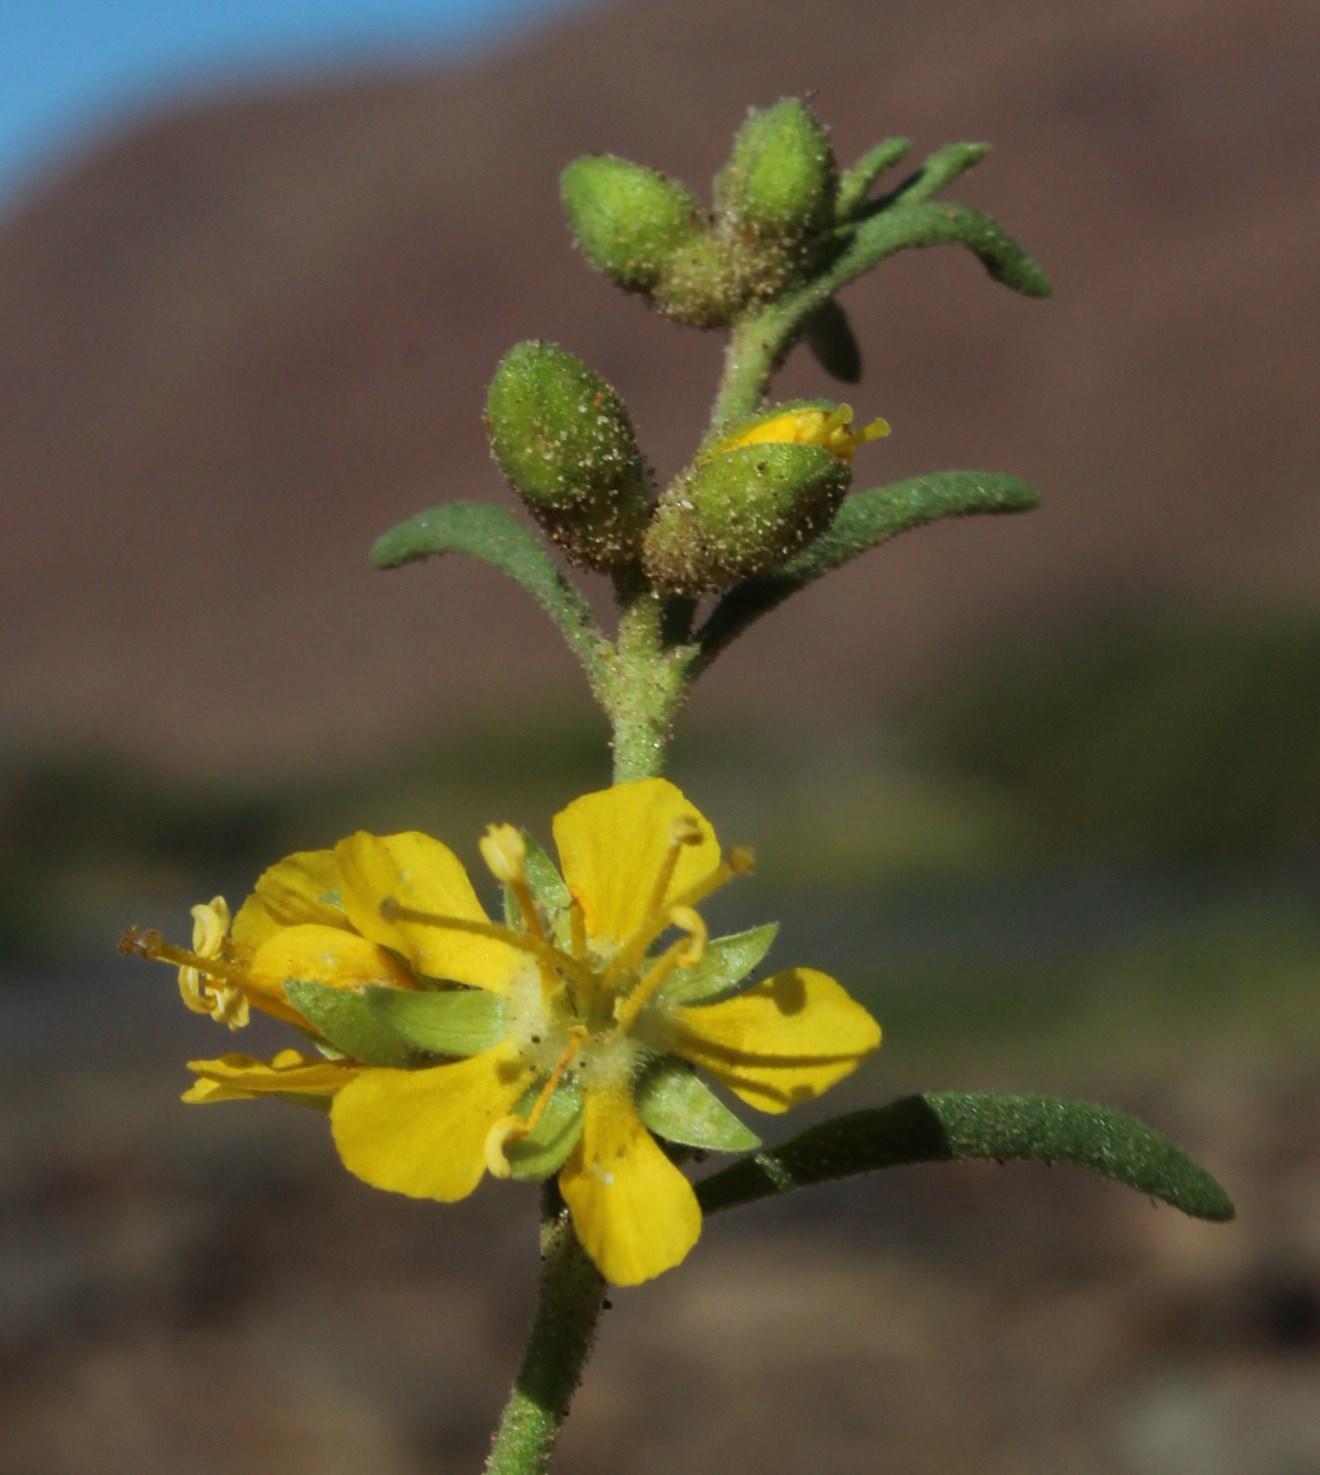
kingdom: Plantae
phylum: Tracheophyta
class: Magnoliopsida
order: Vahliales
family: Vahliaceae
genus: Vahlia
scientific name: Vahlia capensis
